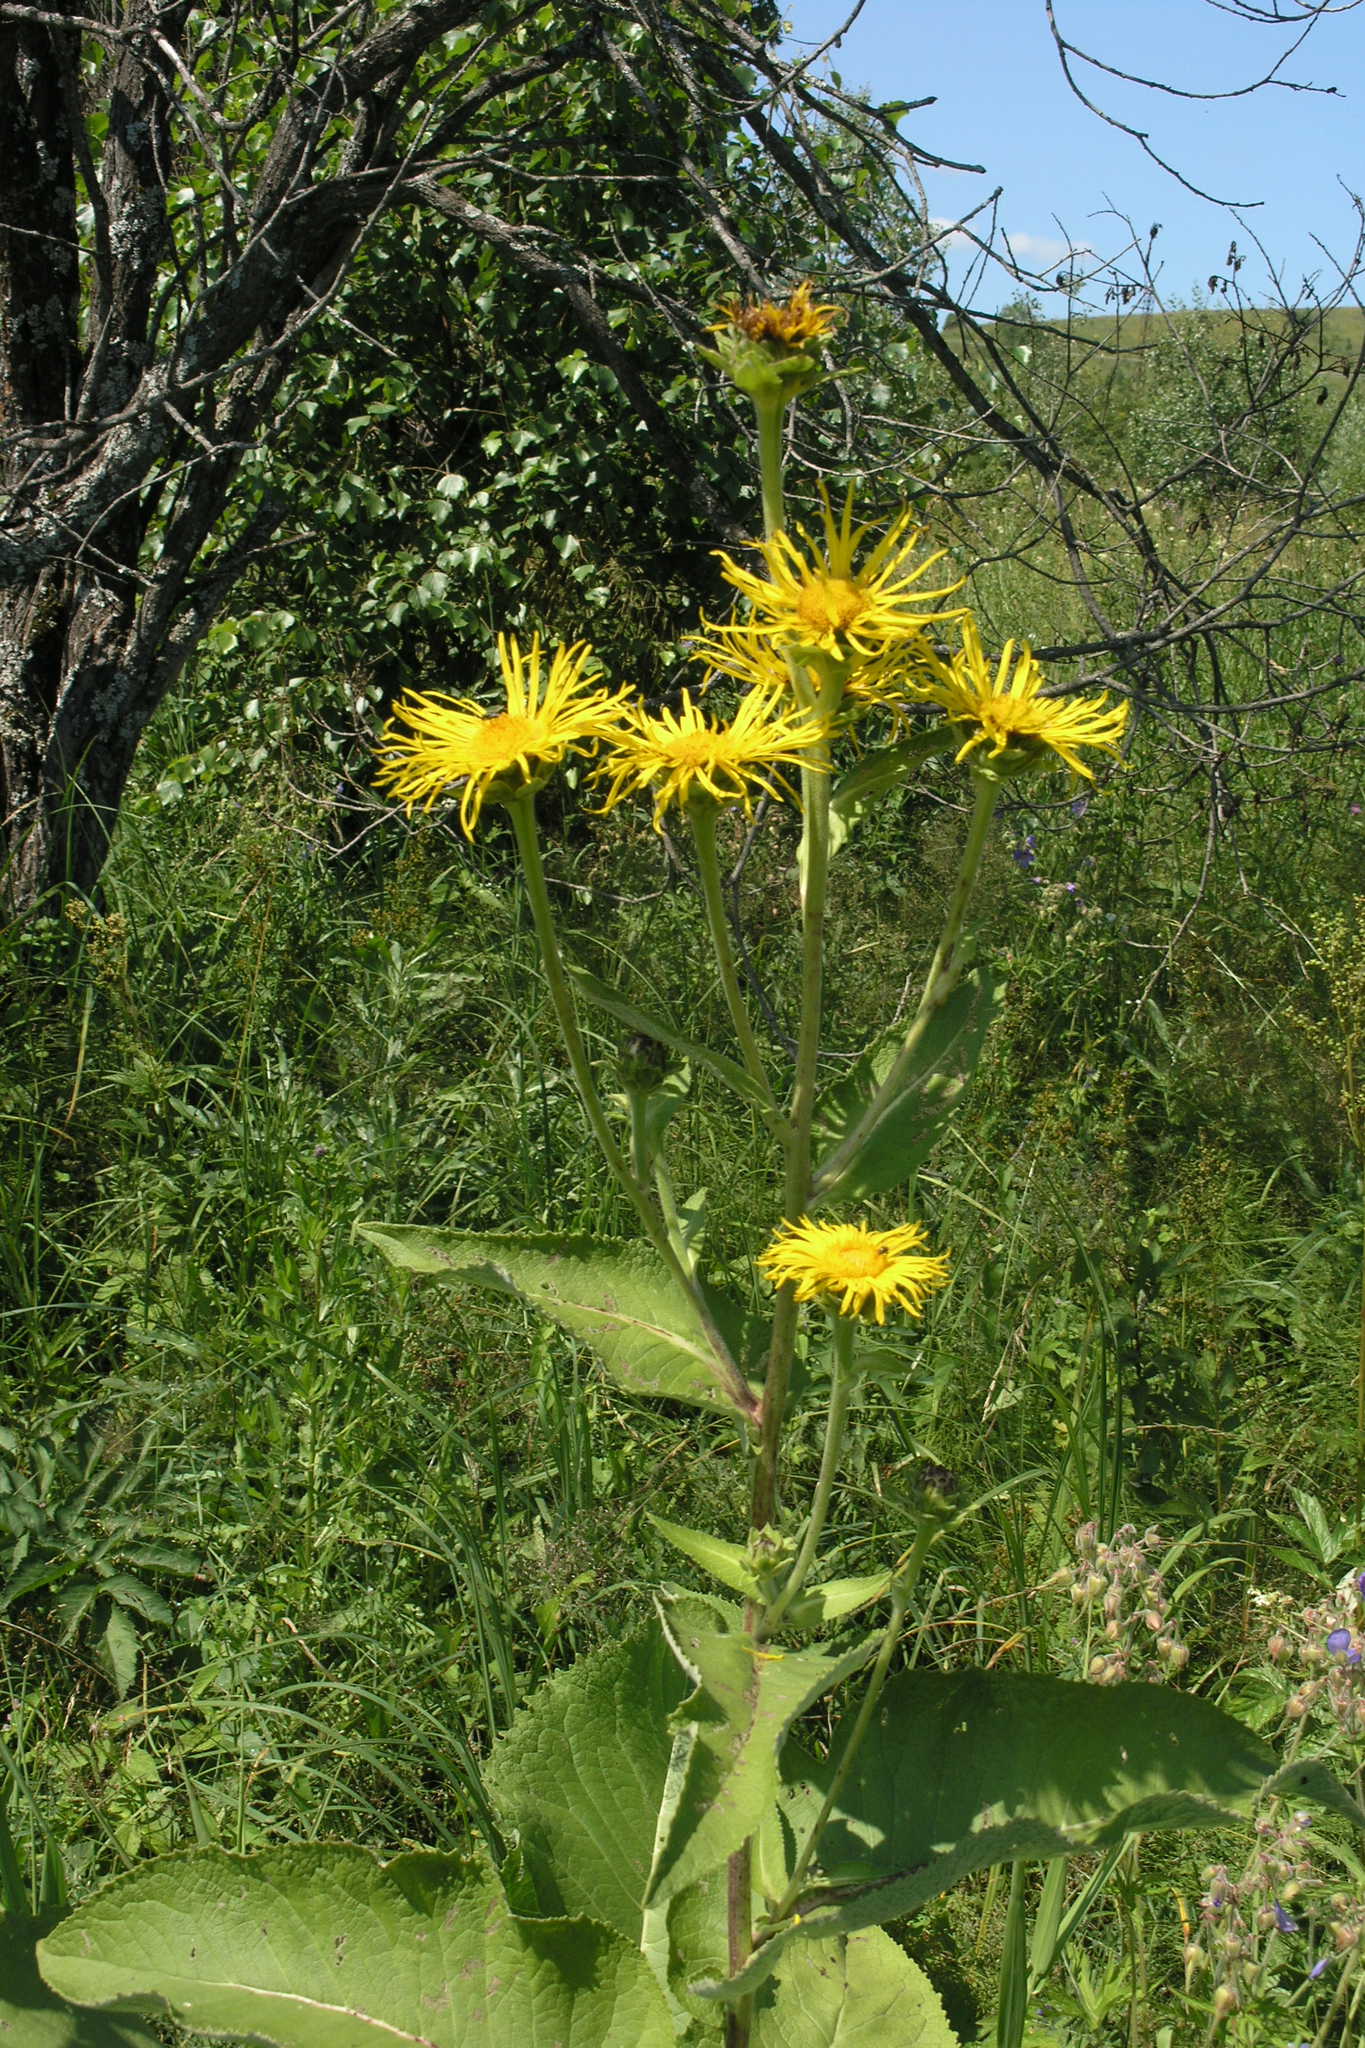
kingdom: Plantae
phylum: Tracheophyta
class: Magnoliopsida
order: Asterales
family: Asteraceae
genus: Inula
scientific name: Inula helenium
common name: Elecampane
